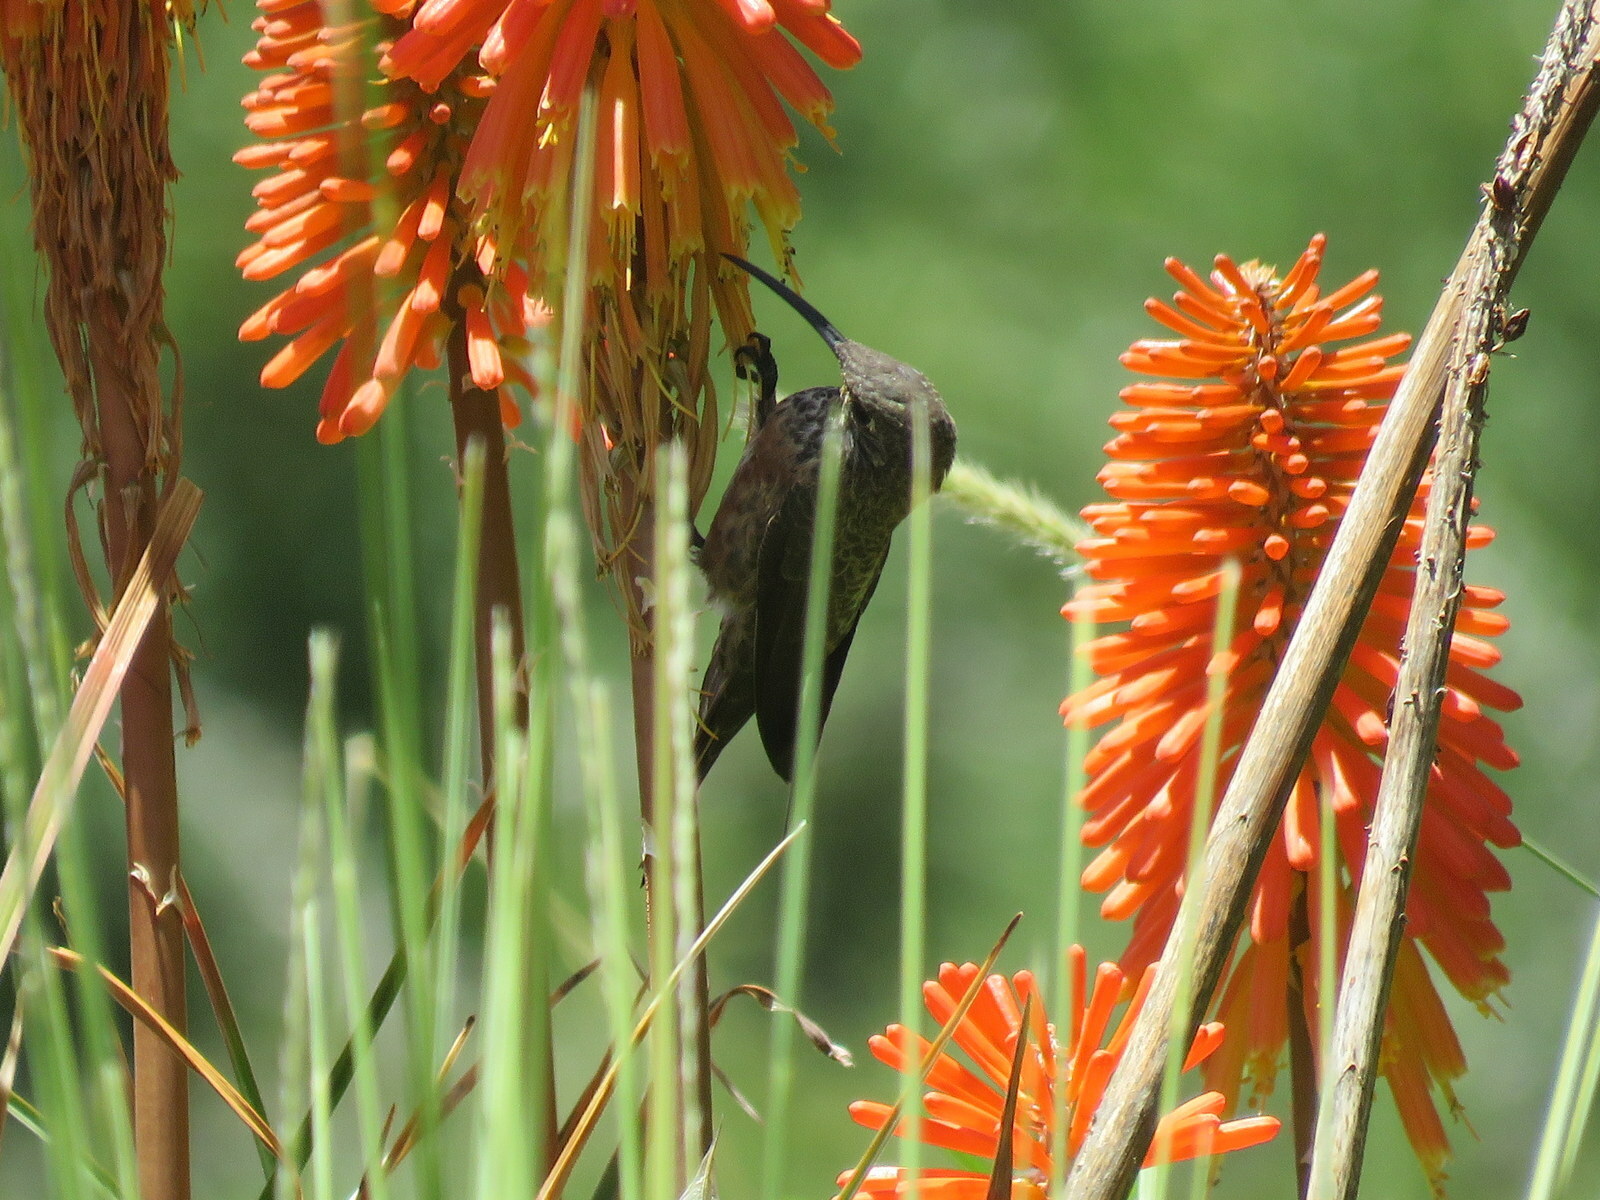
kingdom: Animalia
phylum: Chordata
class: Aves
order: Apodiformes
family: Trochilidae
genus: Oreotrochilus
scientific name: Oreotrochilus adela
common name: Wedge-tailed hillstar
